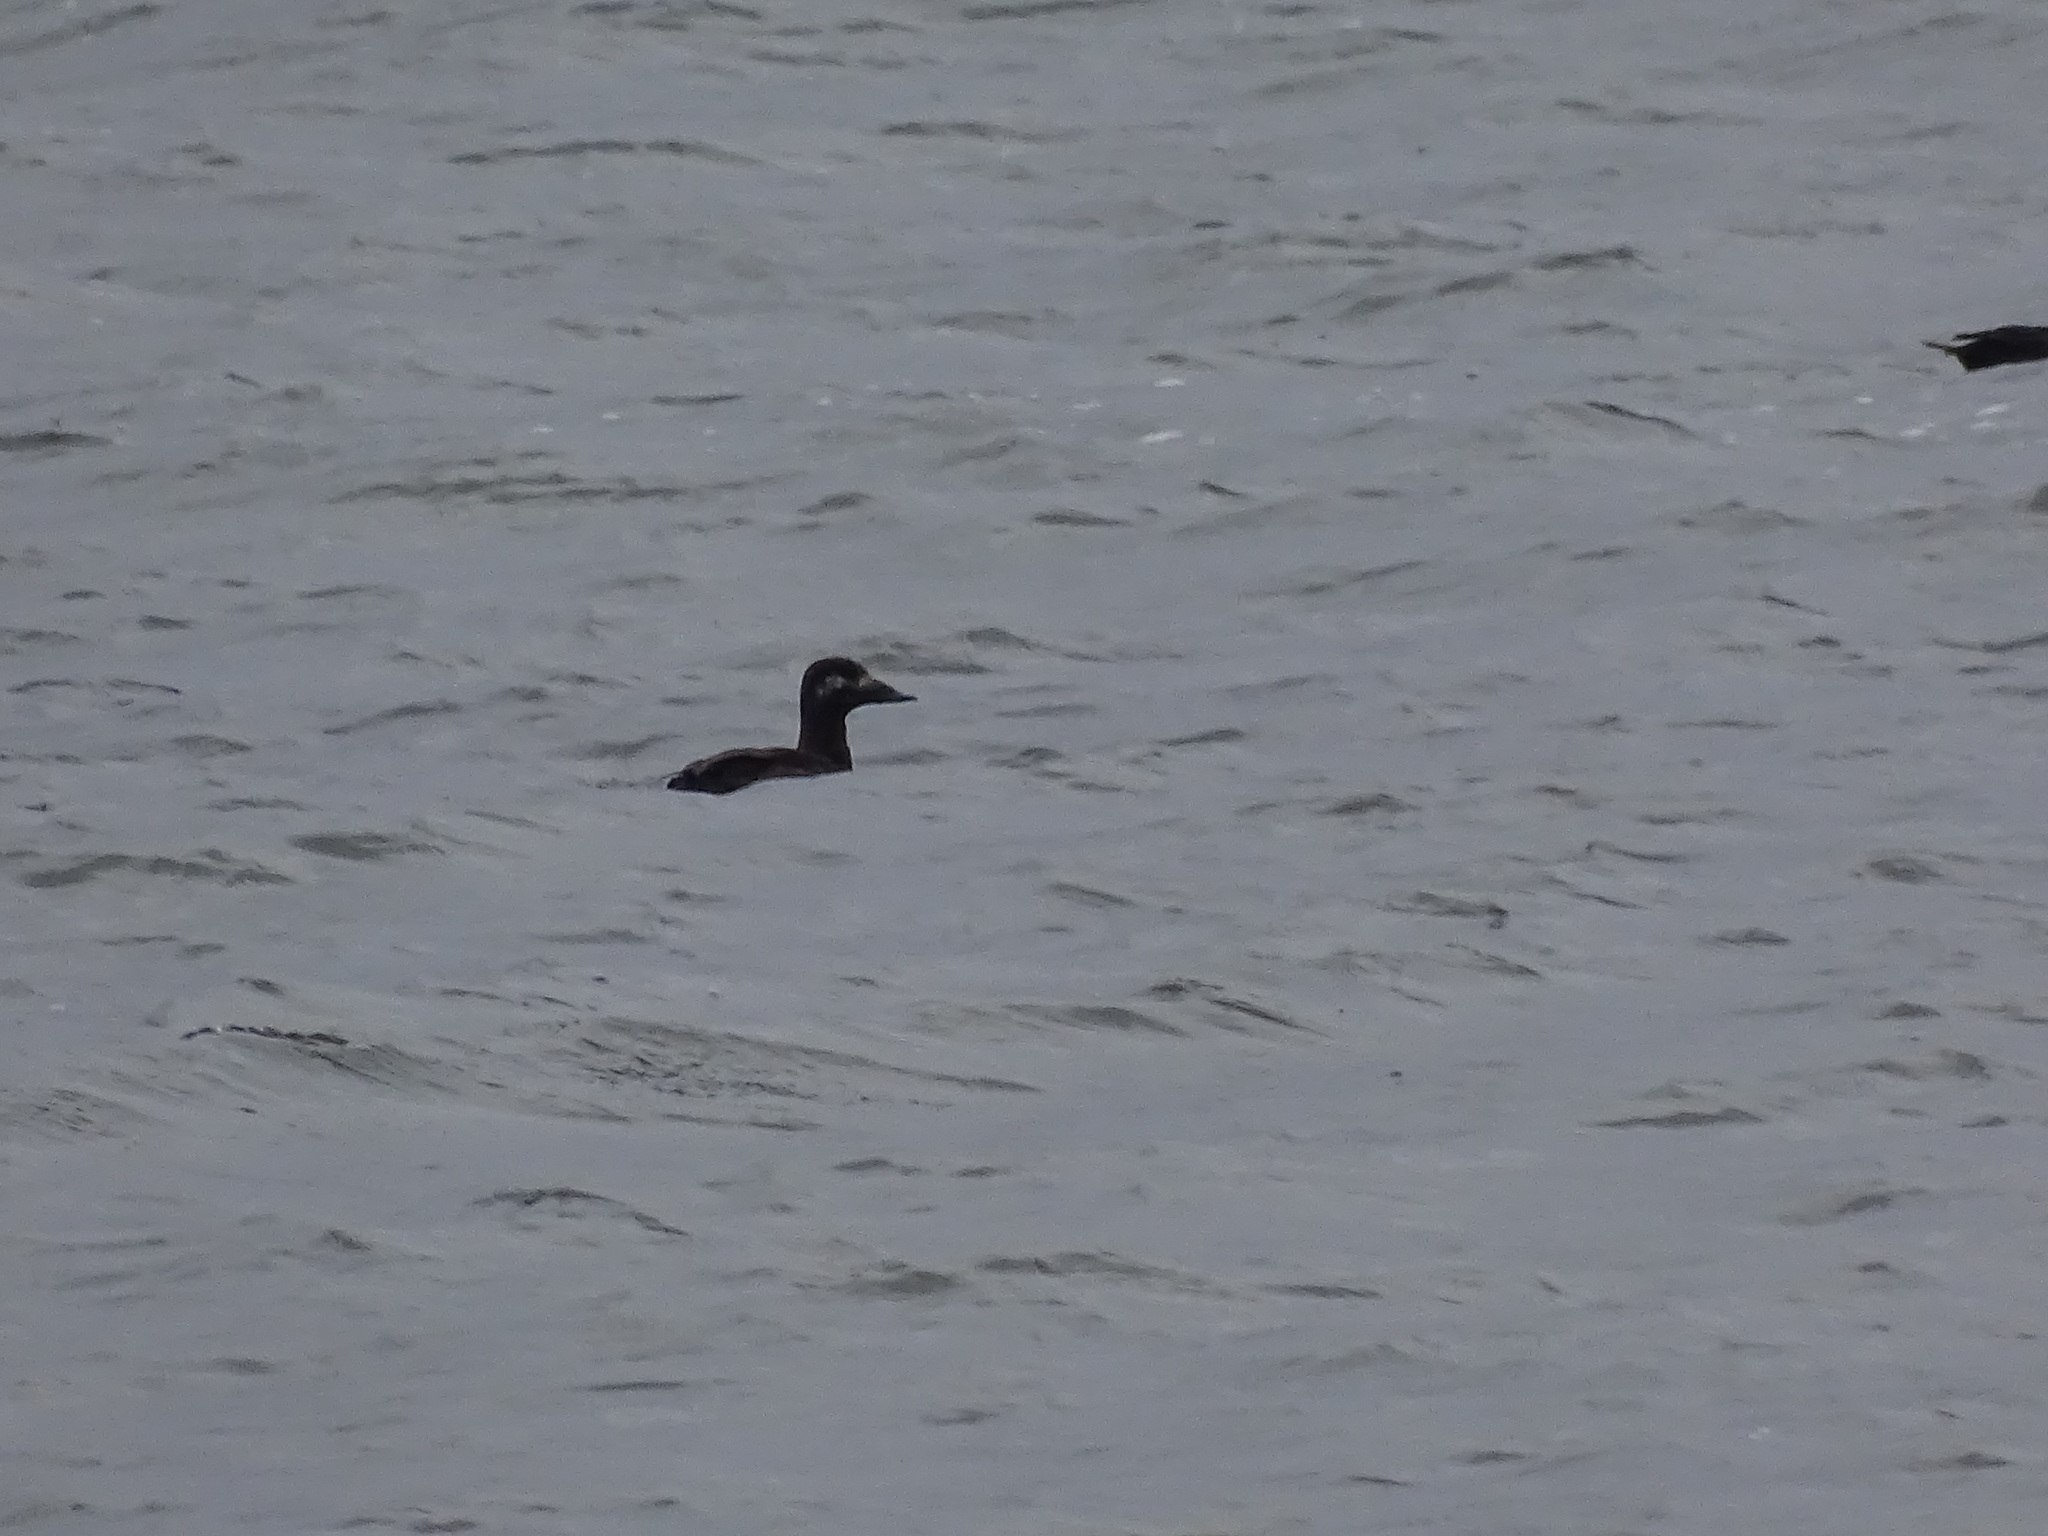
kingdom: Animalia
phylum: Chordata
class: Aves
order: Anseriformes
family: Anatidae
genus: Melanitta
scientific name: Melanitta deglandi
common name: White-winged scoter
